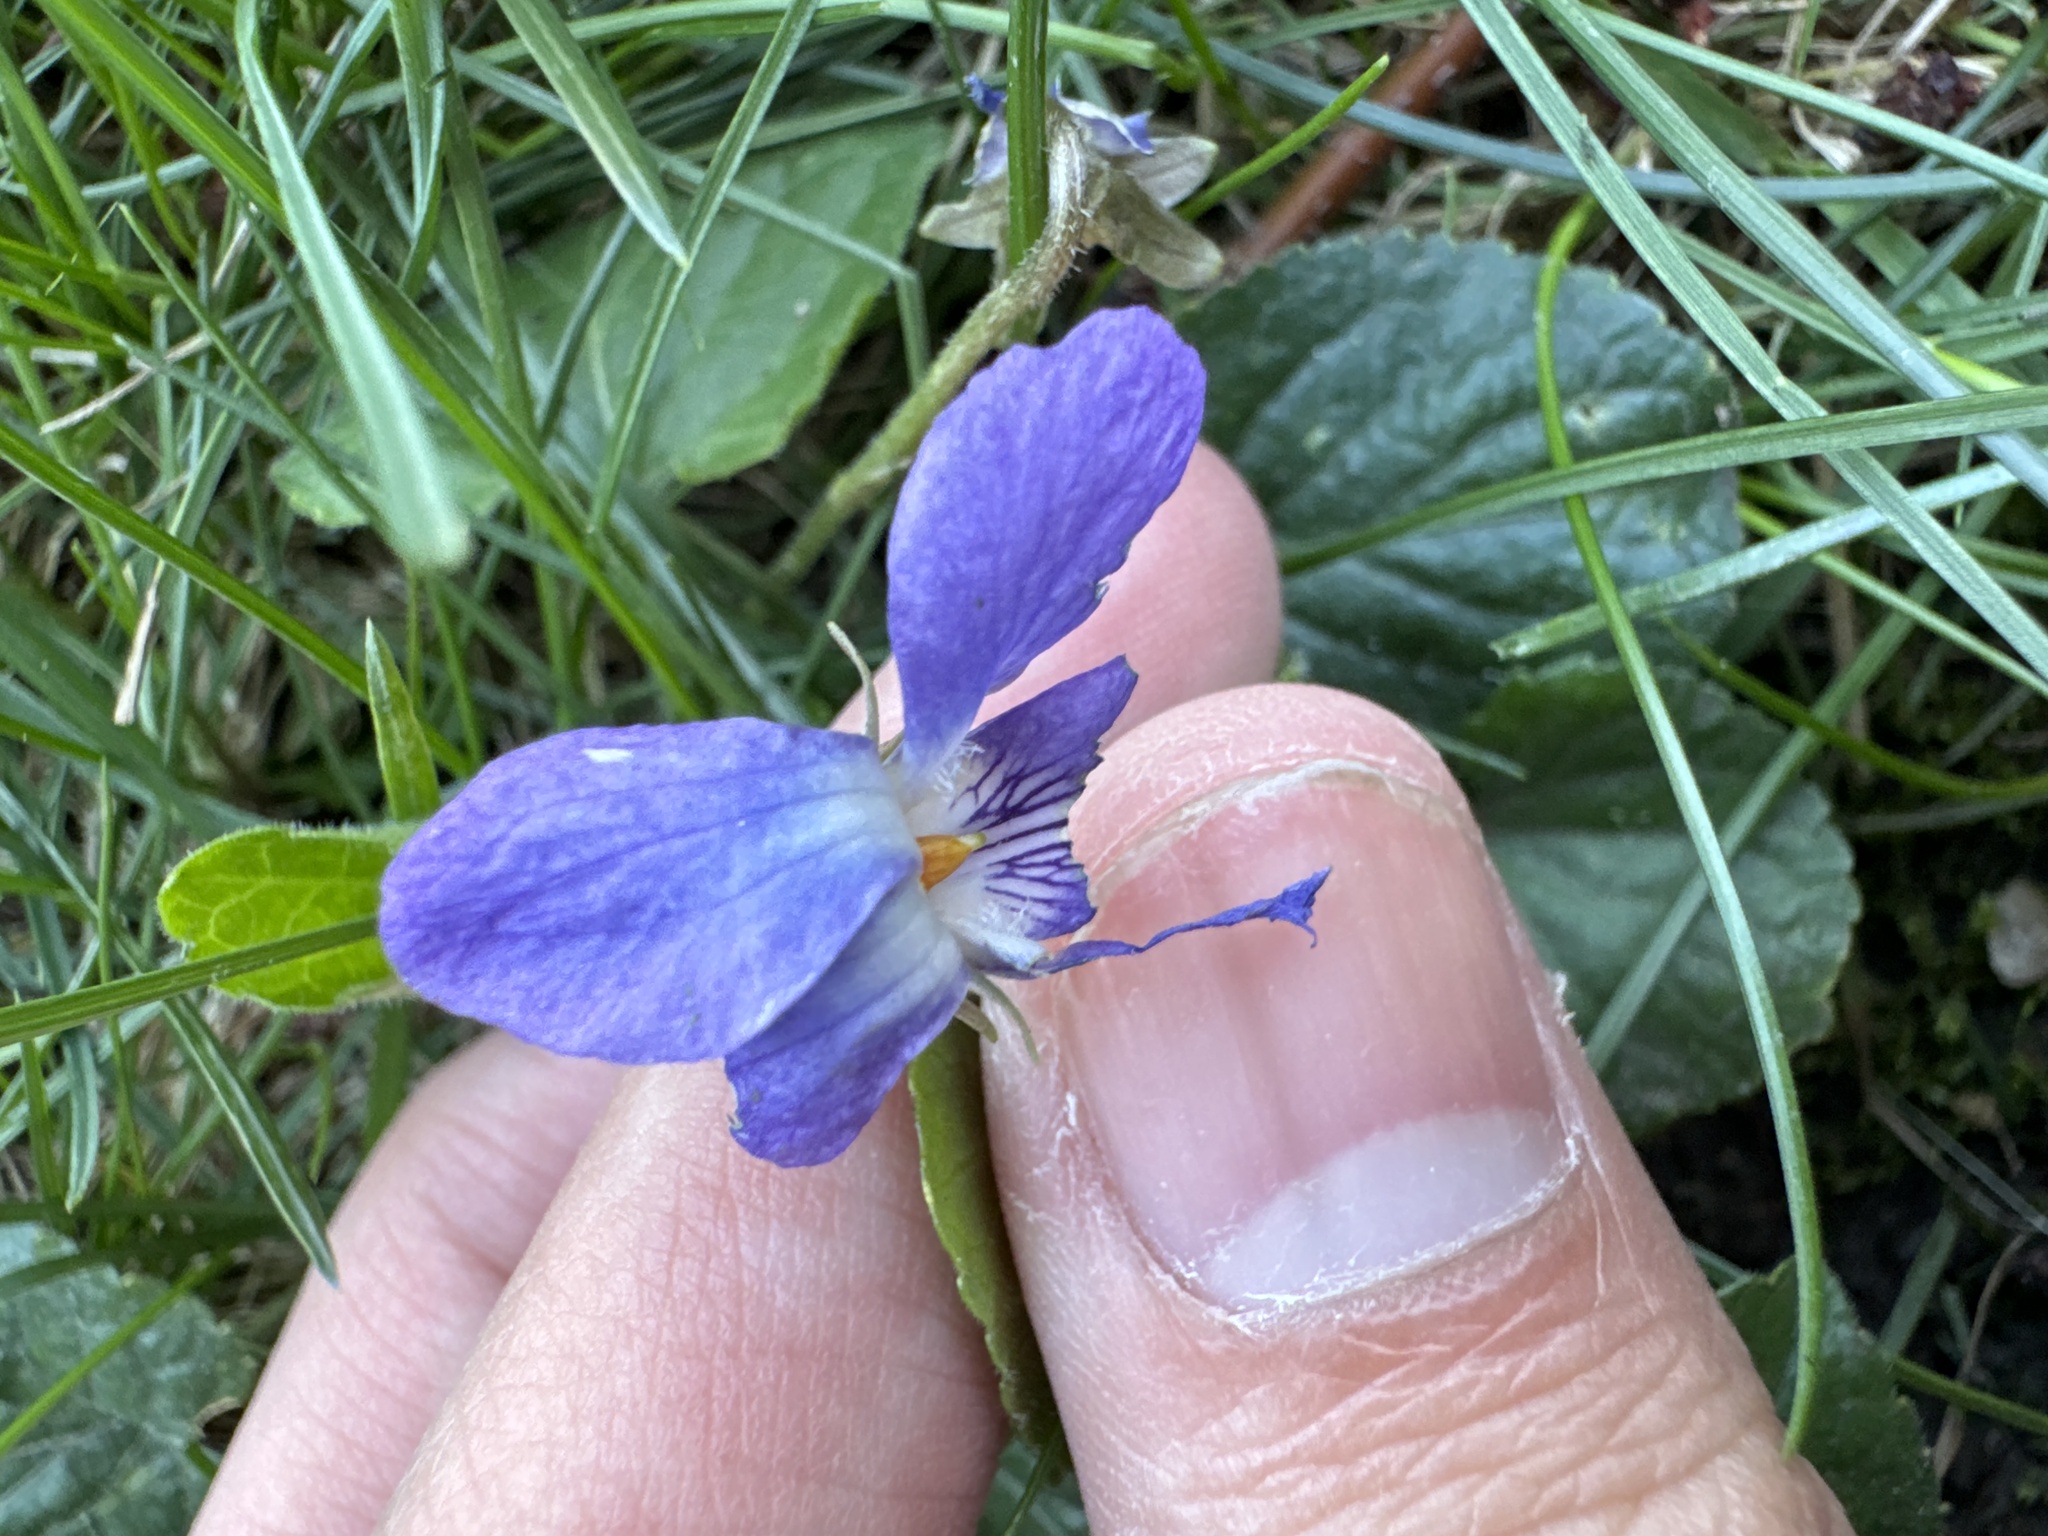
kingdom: Plantae
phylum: Tracheophyta
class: Magnoliopsida
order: Malpighiales
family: Violaceae
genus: Viola
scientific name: Viola odorata
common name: Sweet violet
